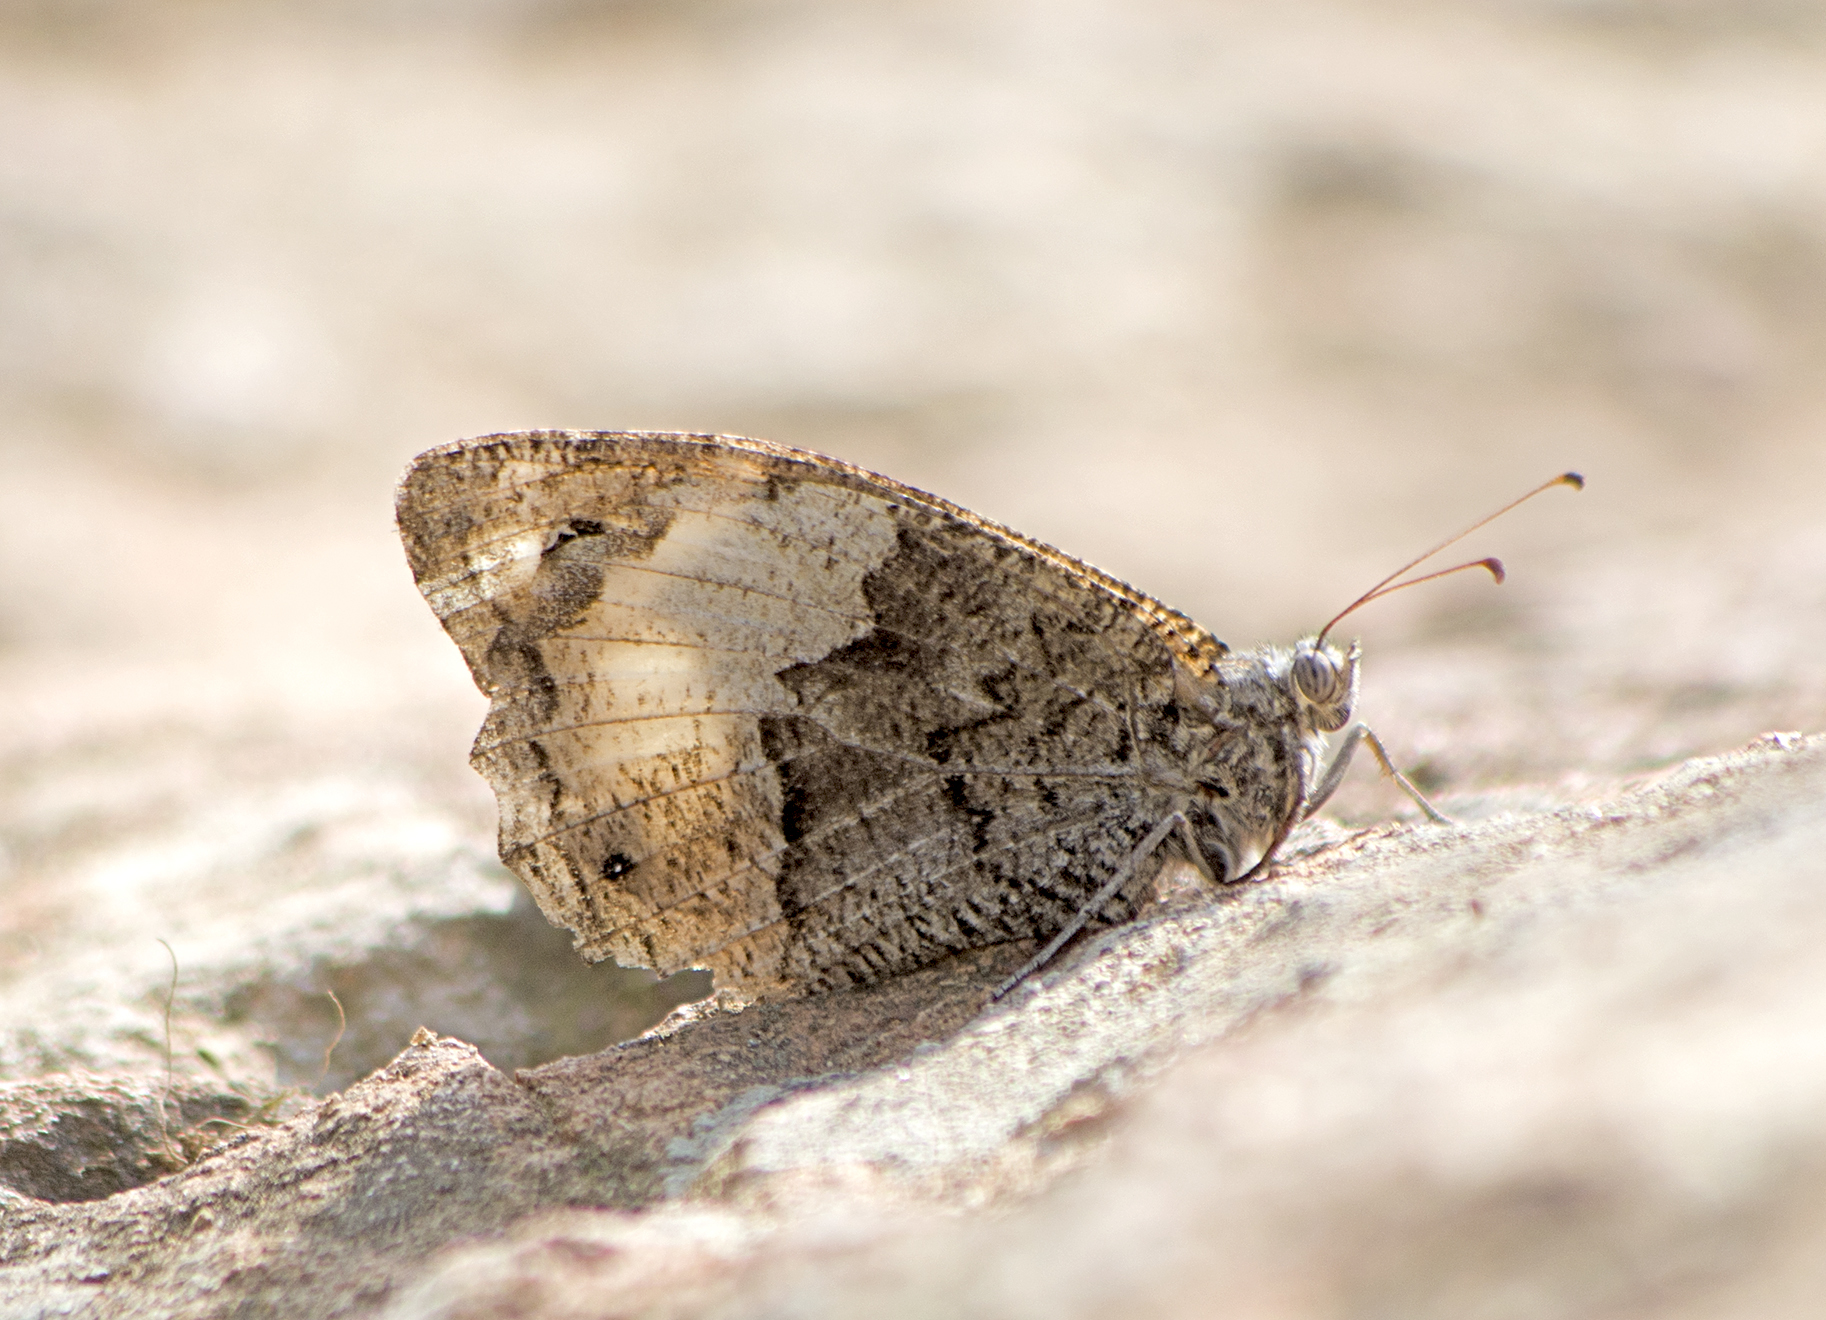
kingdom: Animalia
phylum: Arthropoda
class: Insecta
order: Lepidoptera
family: Nymphalidae
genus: Hipparchia
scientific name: Hipparchia
